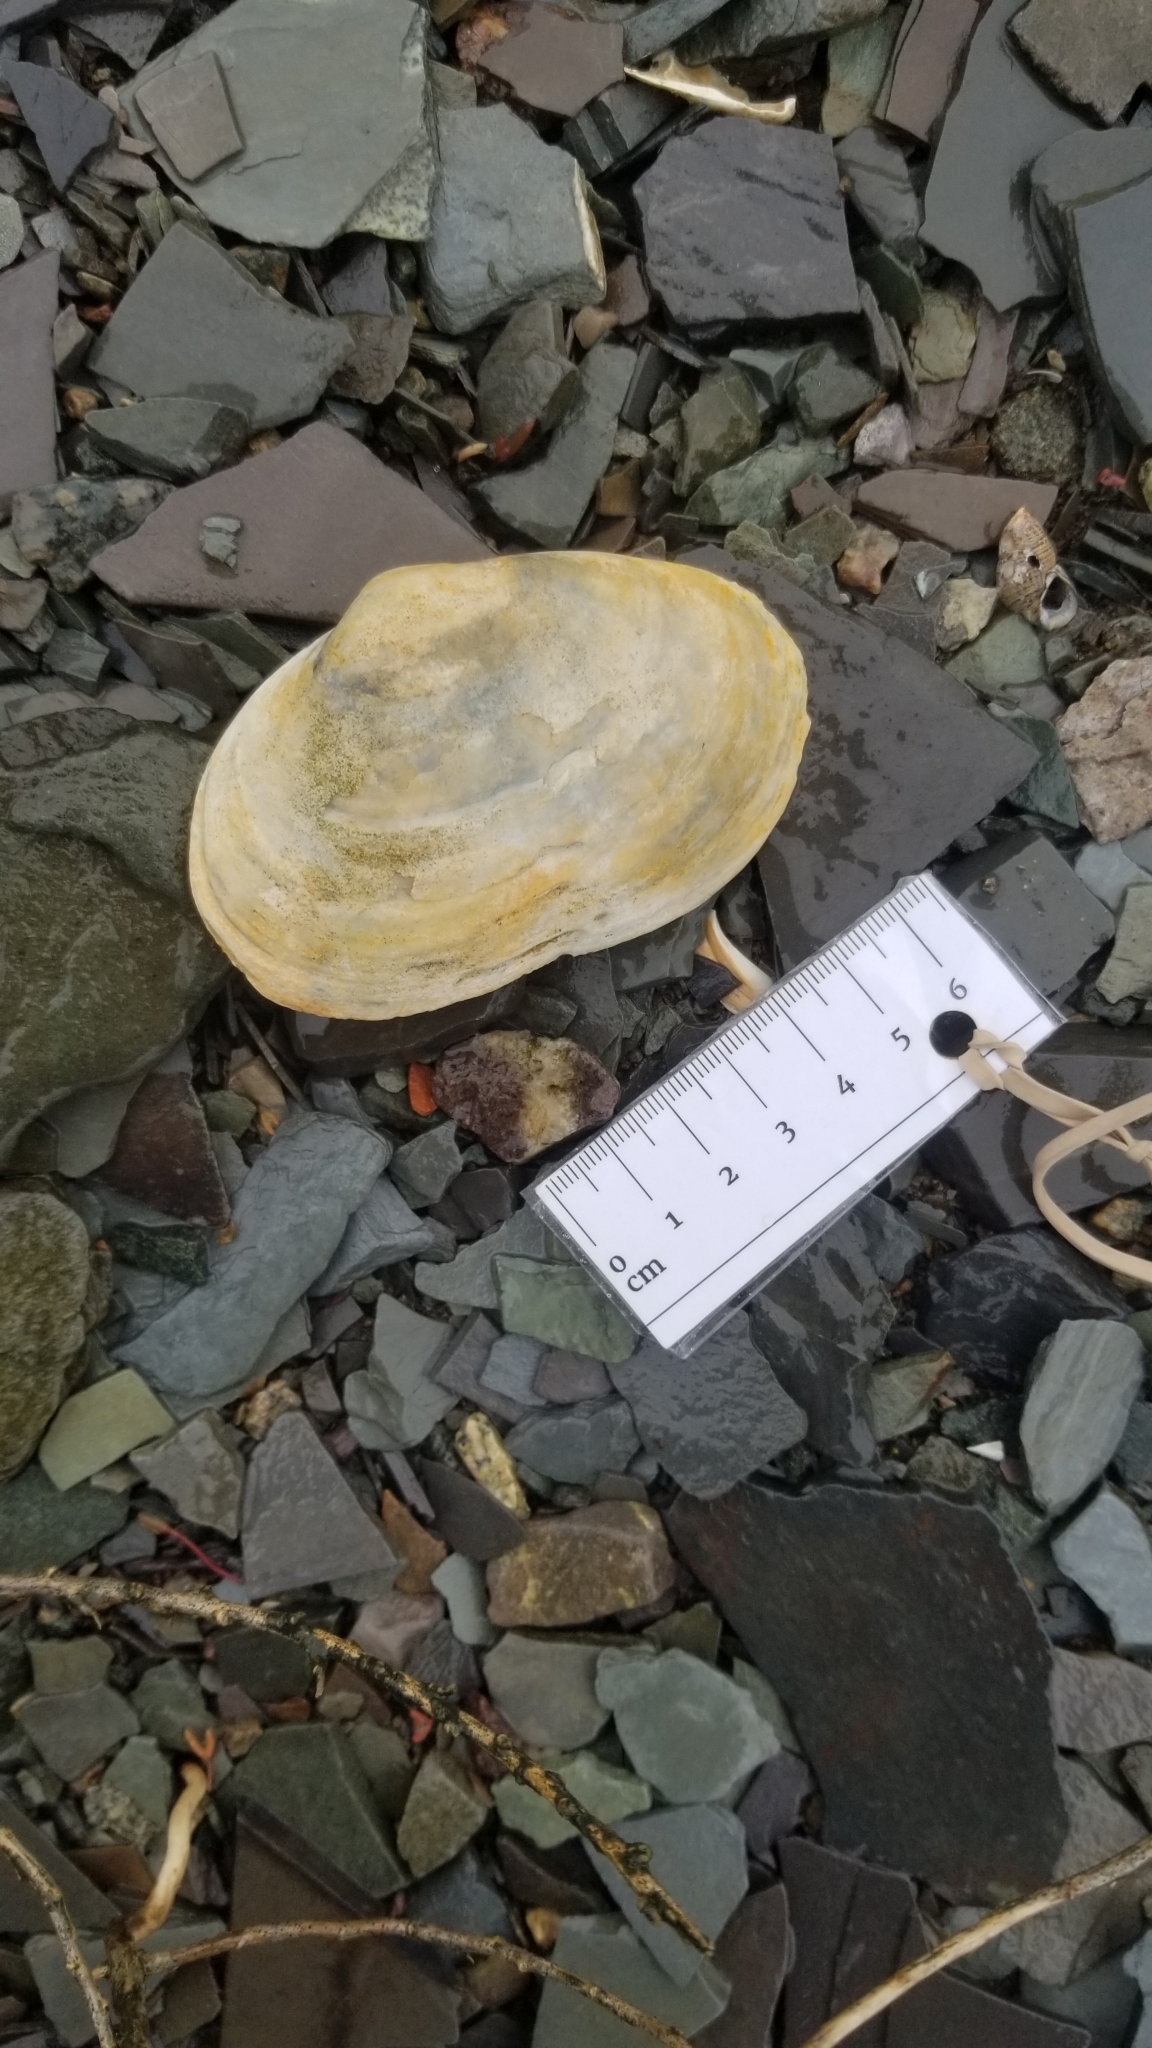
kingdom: Animalia
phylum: Mollusca
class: Bivalvia
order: Myida
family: Myidae
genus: Mya
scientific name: Mya arenaria
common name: Soft-shelled clam
